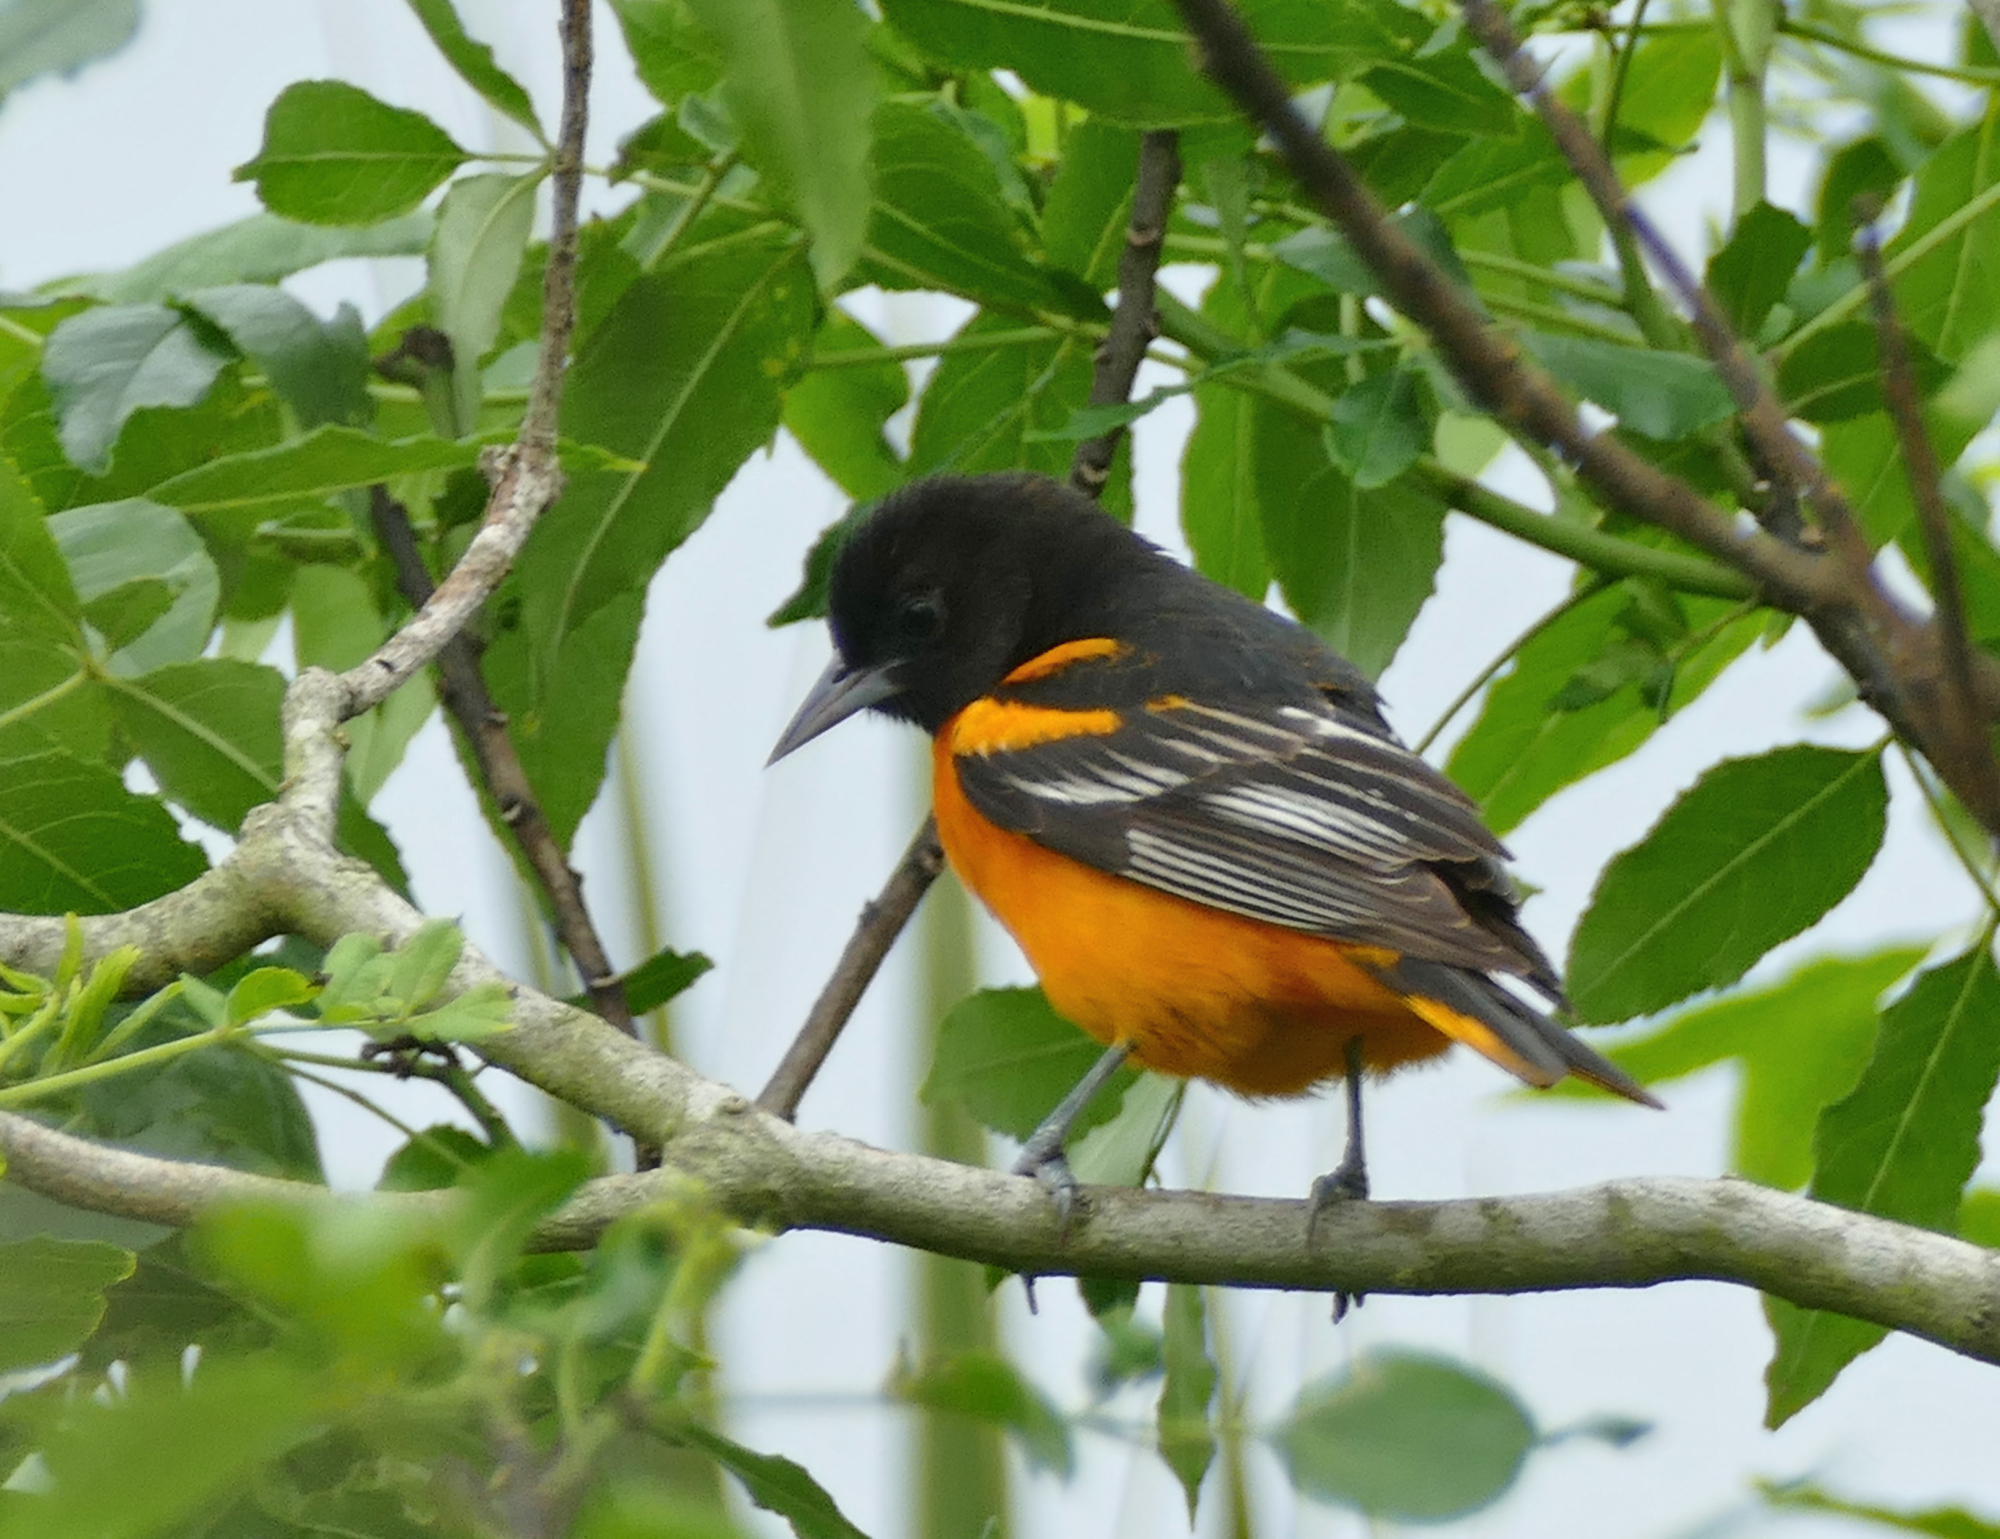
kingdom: Animalia
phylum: Chordata
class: Aves
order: Passeriformes
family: Icteridae
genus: Icterus
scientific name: Icterus galbula
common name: Baltimore oriole
